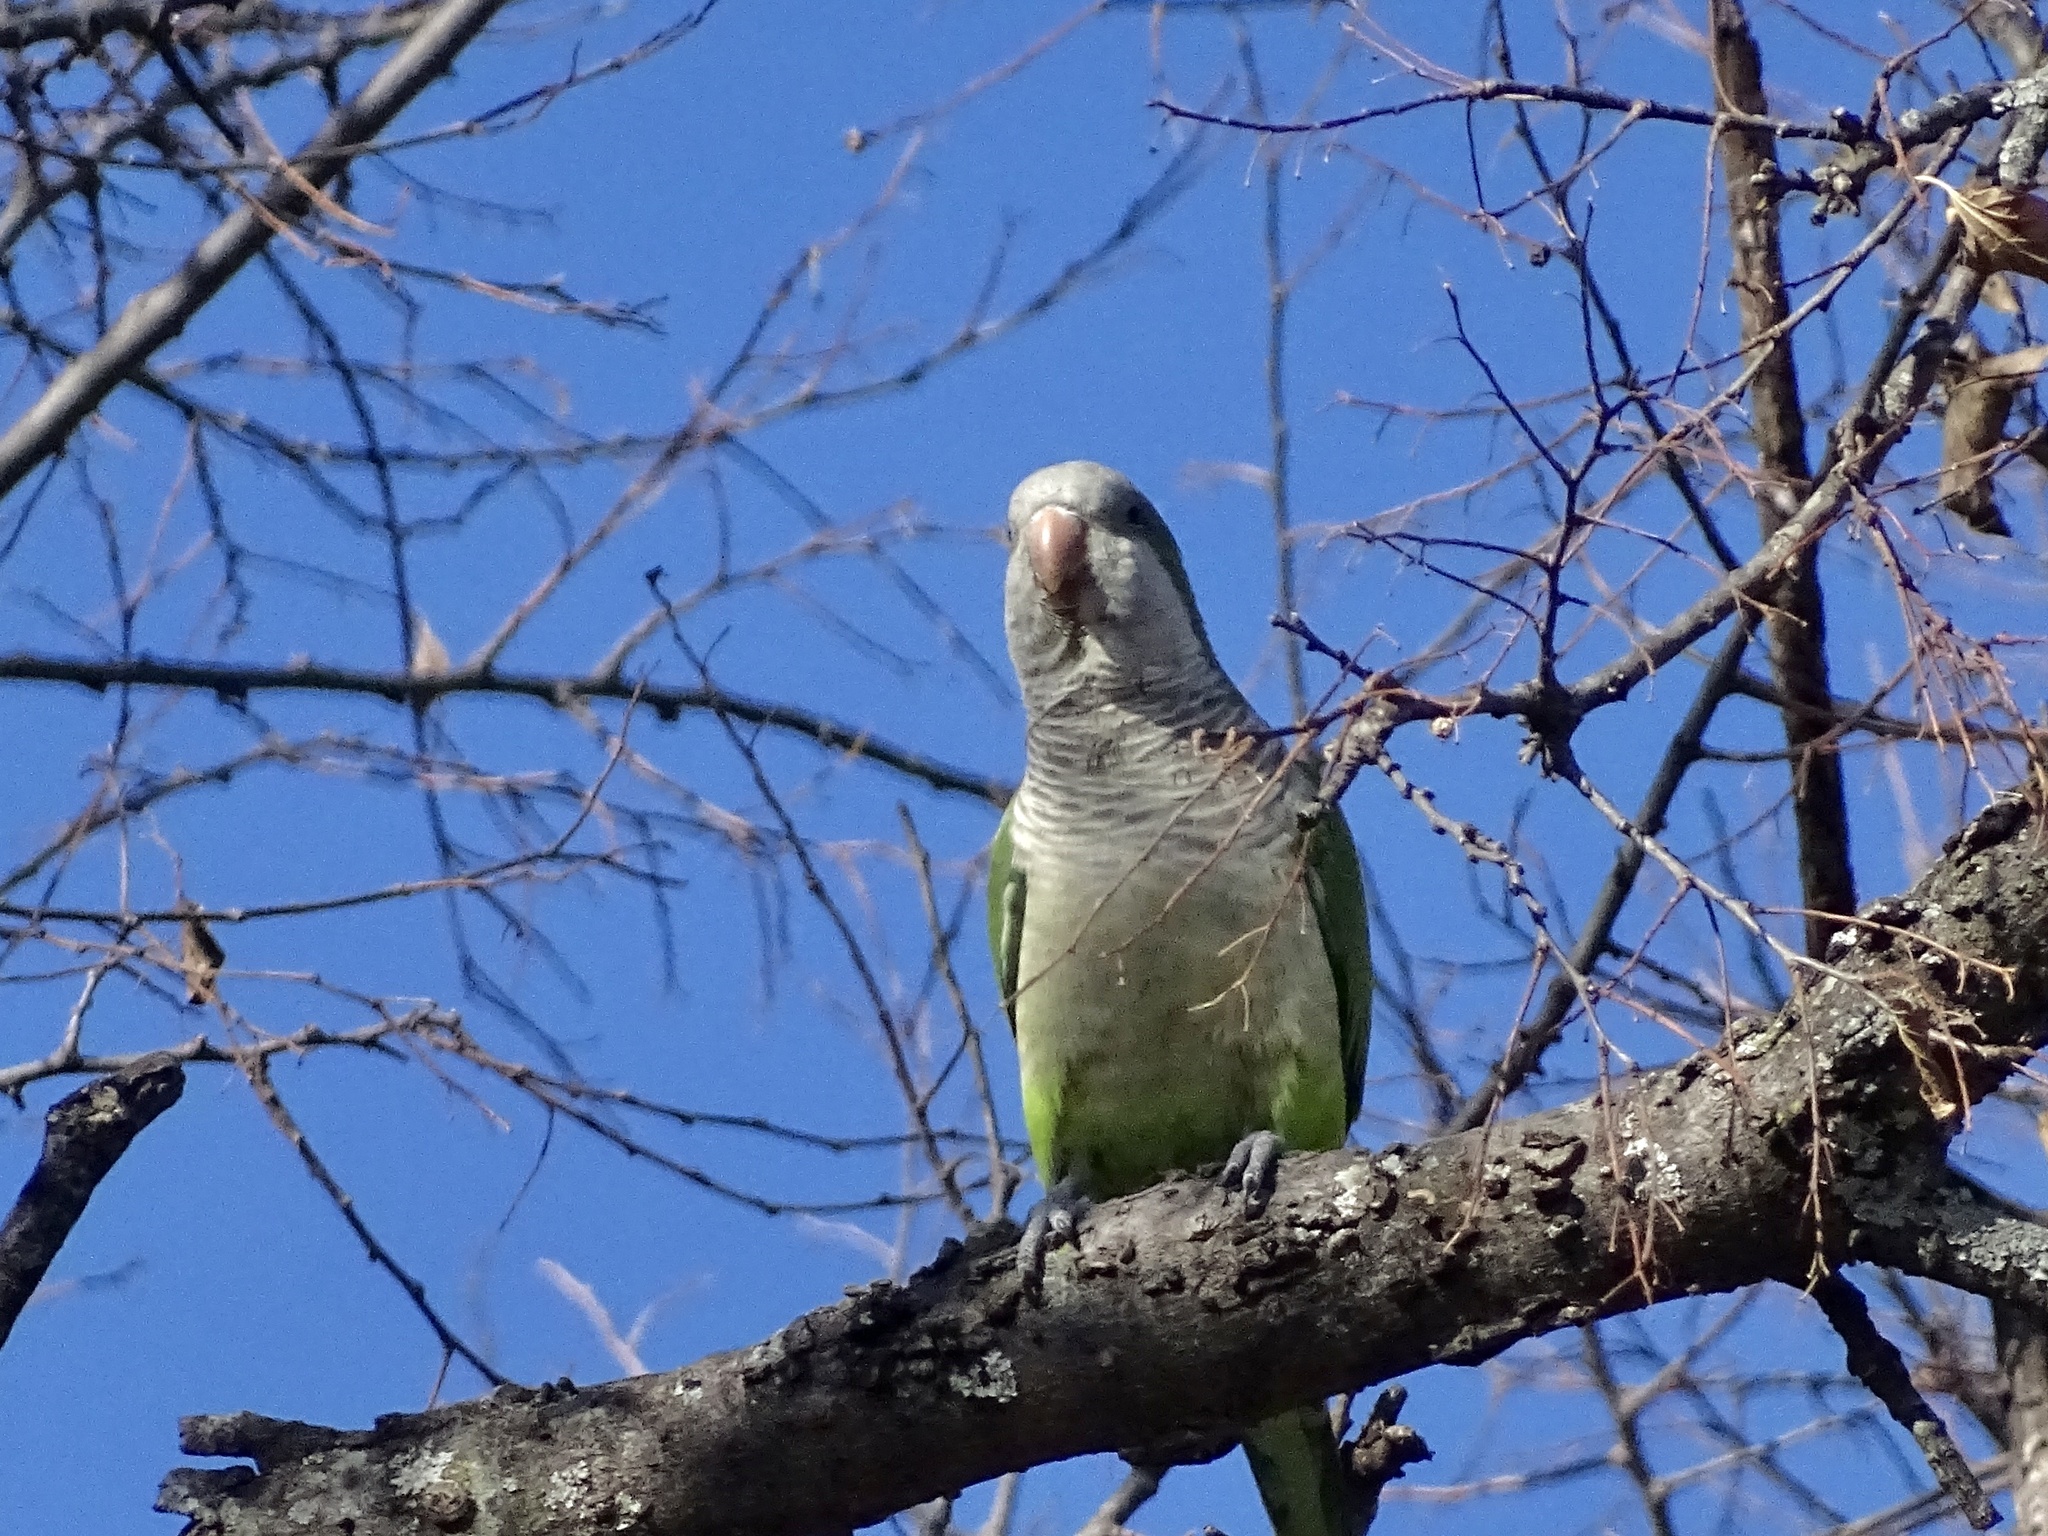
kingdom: Animalia
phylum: Chordata
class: Aves
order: Psittaciformes
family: Psittacidae
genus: Myiopsitta
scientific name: Myiopsitta monachus
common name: Monk parakeet
